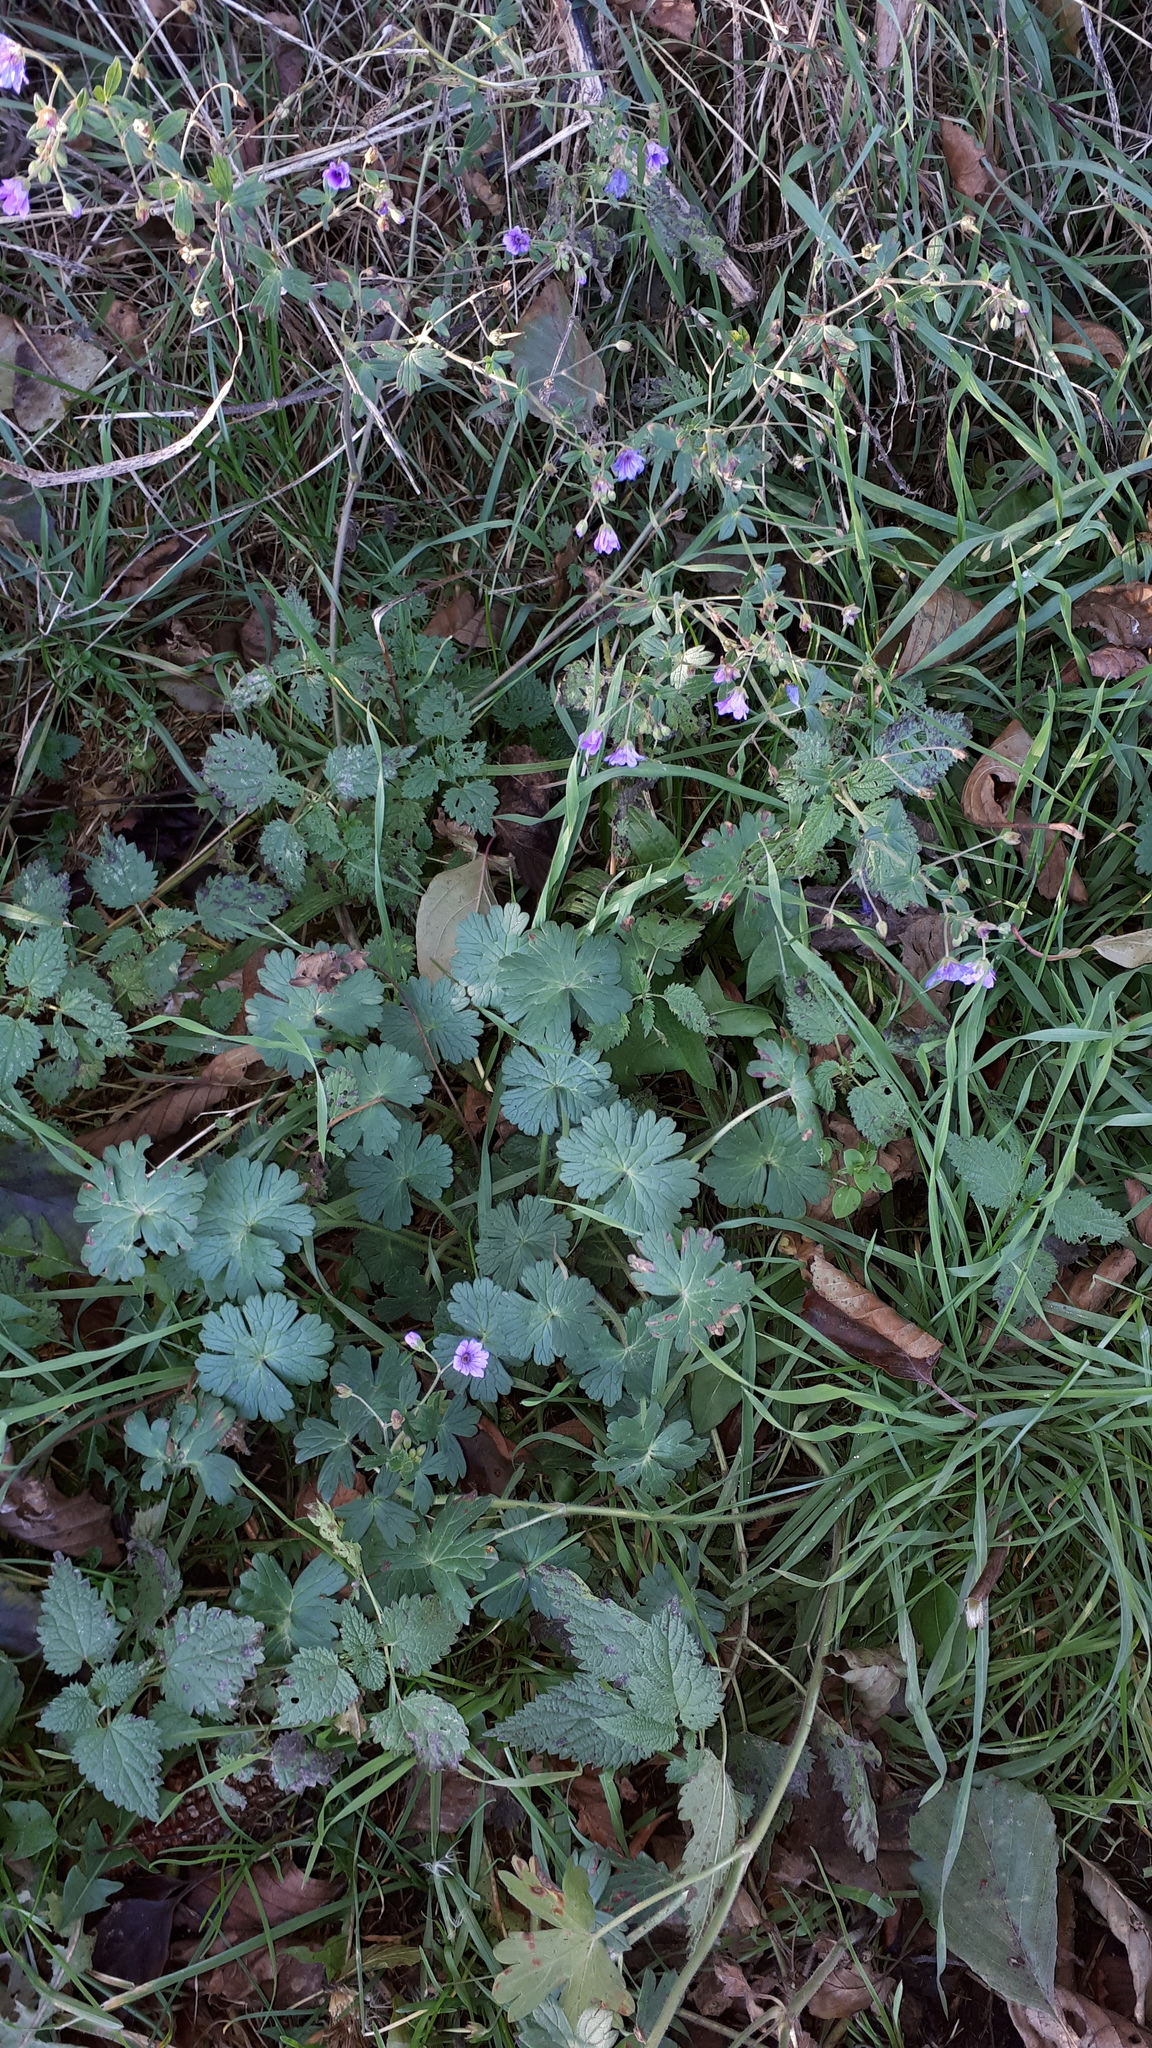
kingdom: Plantae
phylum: Tracheophyta
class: Magnoliopsida
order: Geraniales
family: Geraniaceae
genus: Geranium
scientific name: Geranium pyrenaicum
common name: Hedgerow crane's-bill
